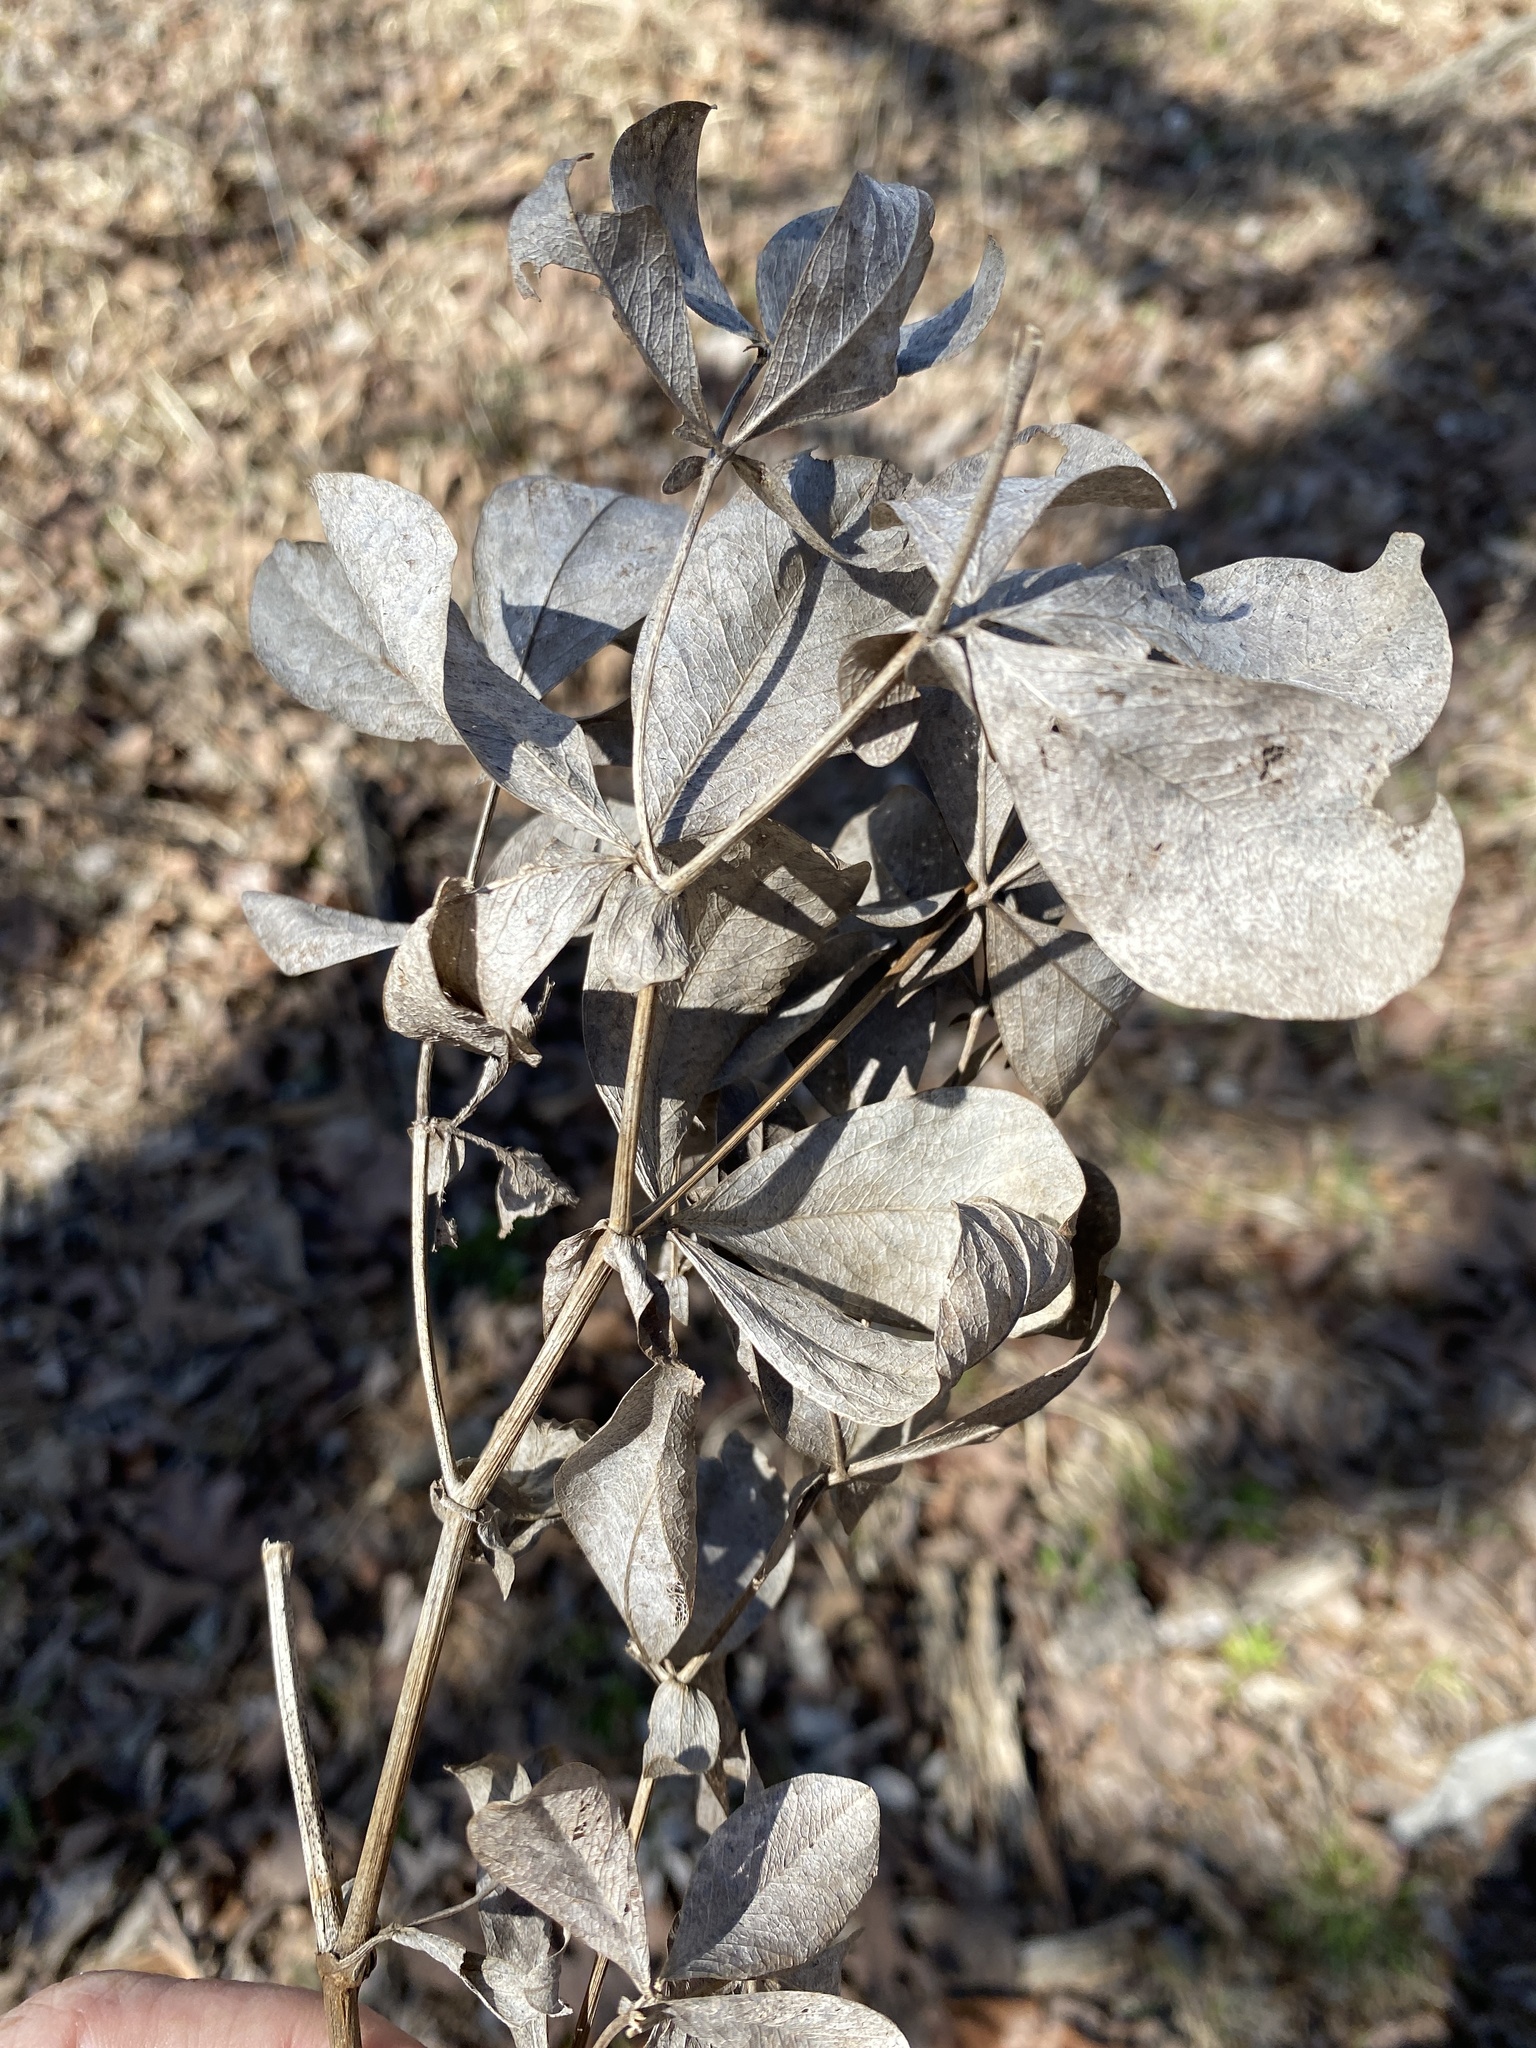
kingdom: Plantae
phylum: Tracheophyta
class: Magnoliopsida
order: Fabales
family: Fabaceae
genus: Baptisia
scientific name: Baptisia bracteata
